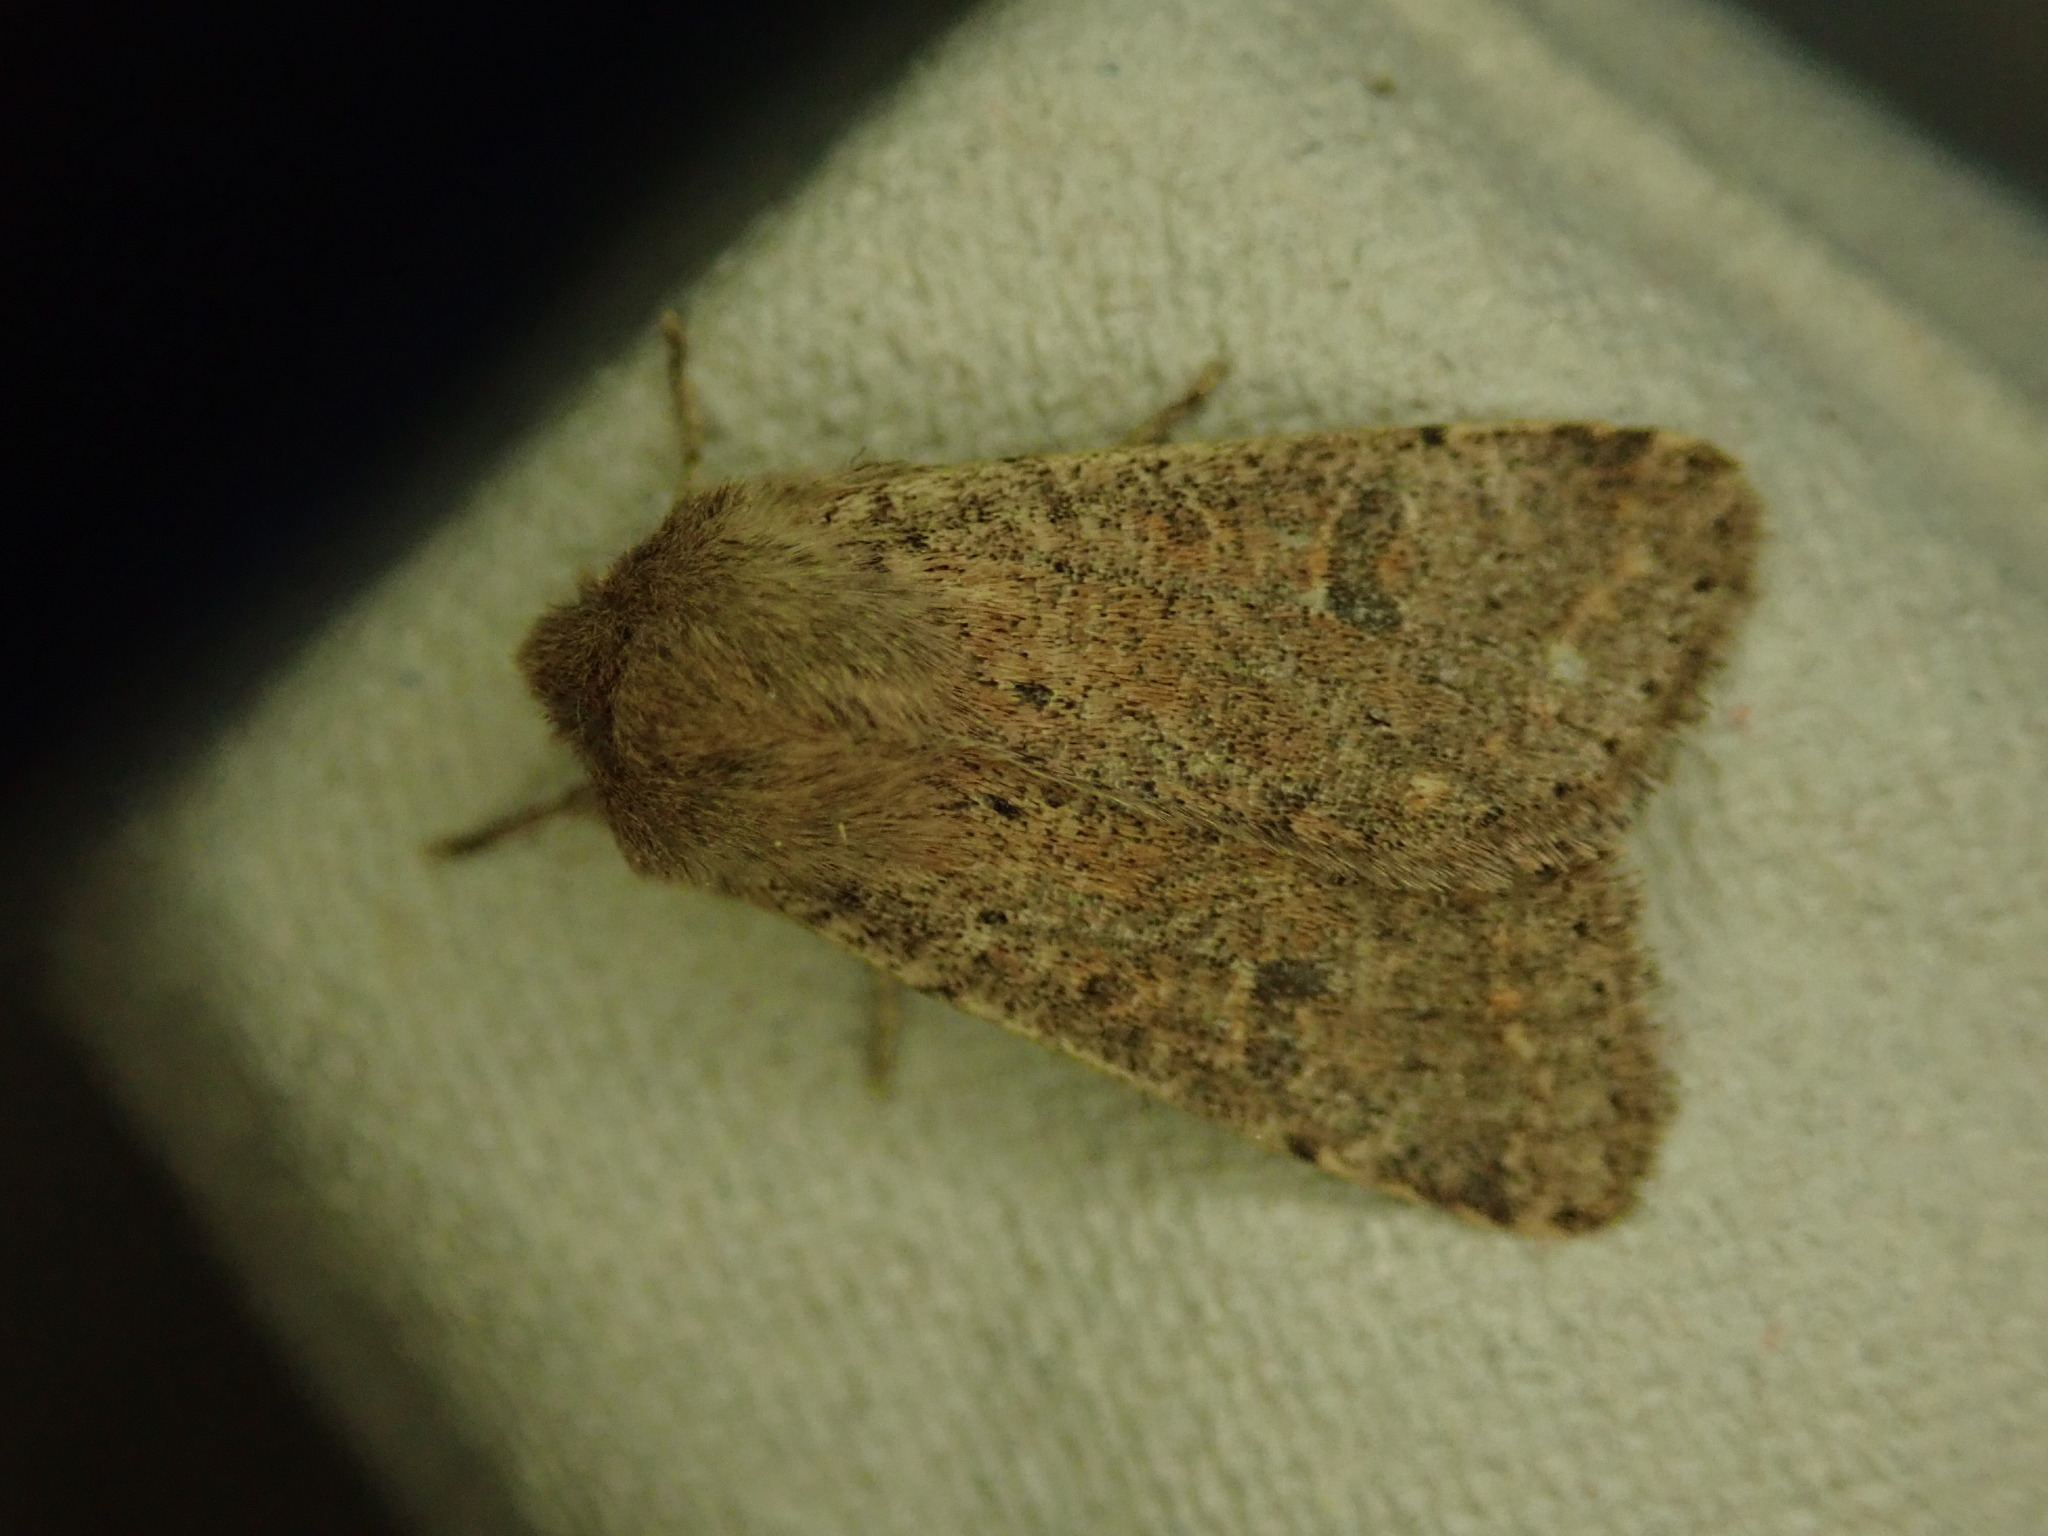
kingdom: Animalia
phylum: Arthropoda
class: Insecta
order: Lepidoptera
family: Noctuidae
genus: Orthosia
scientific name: Orthosia cruda
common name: Small quaker
